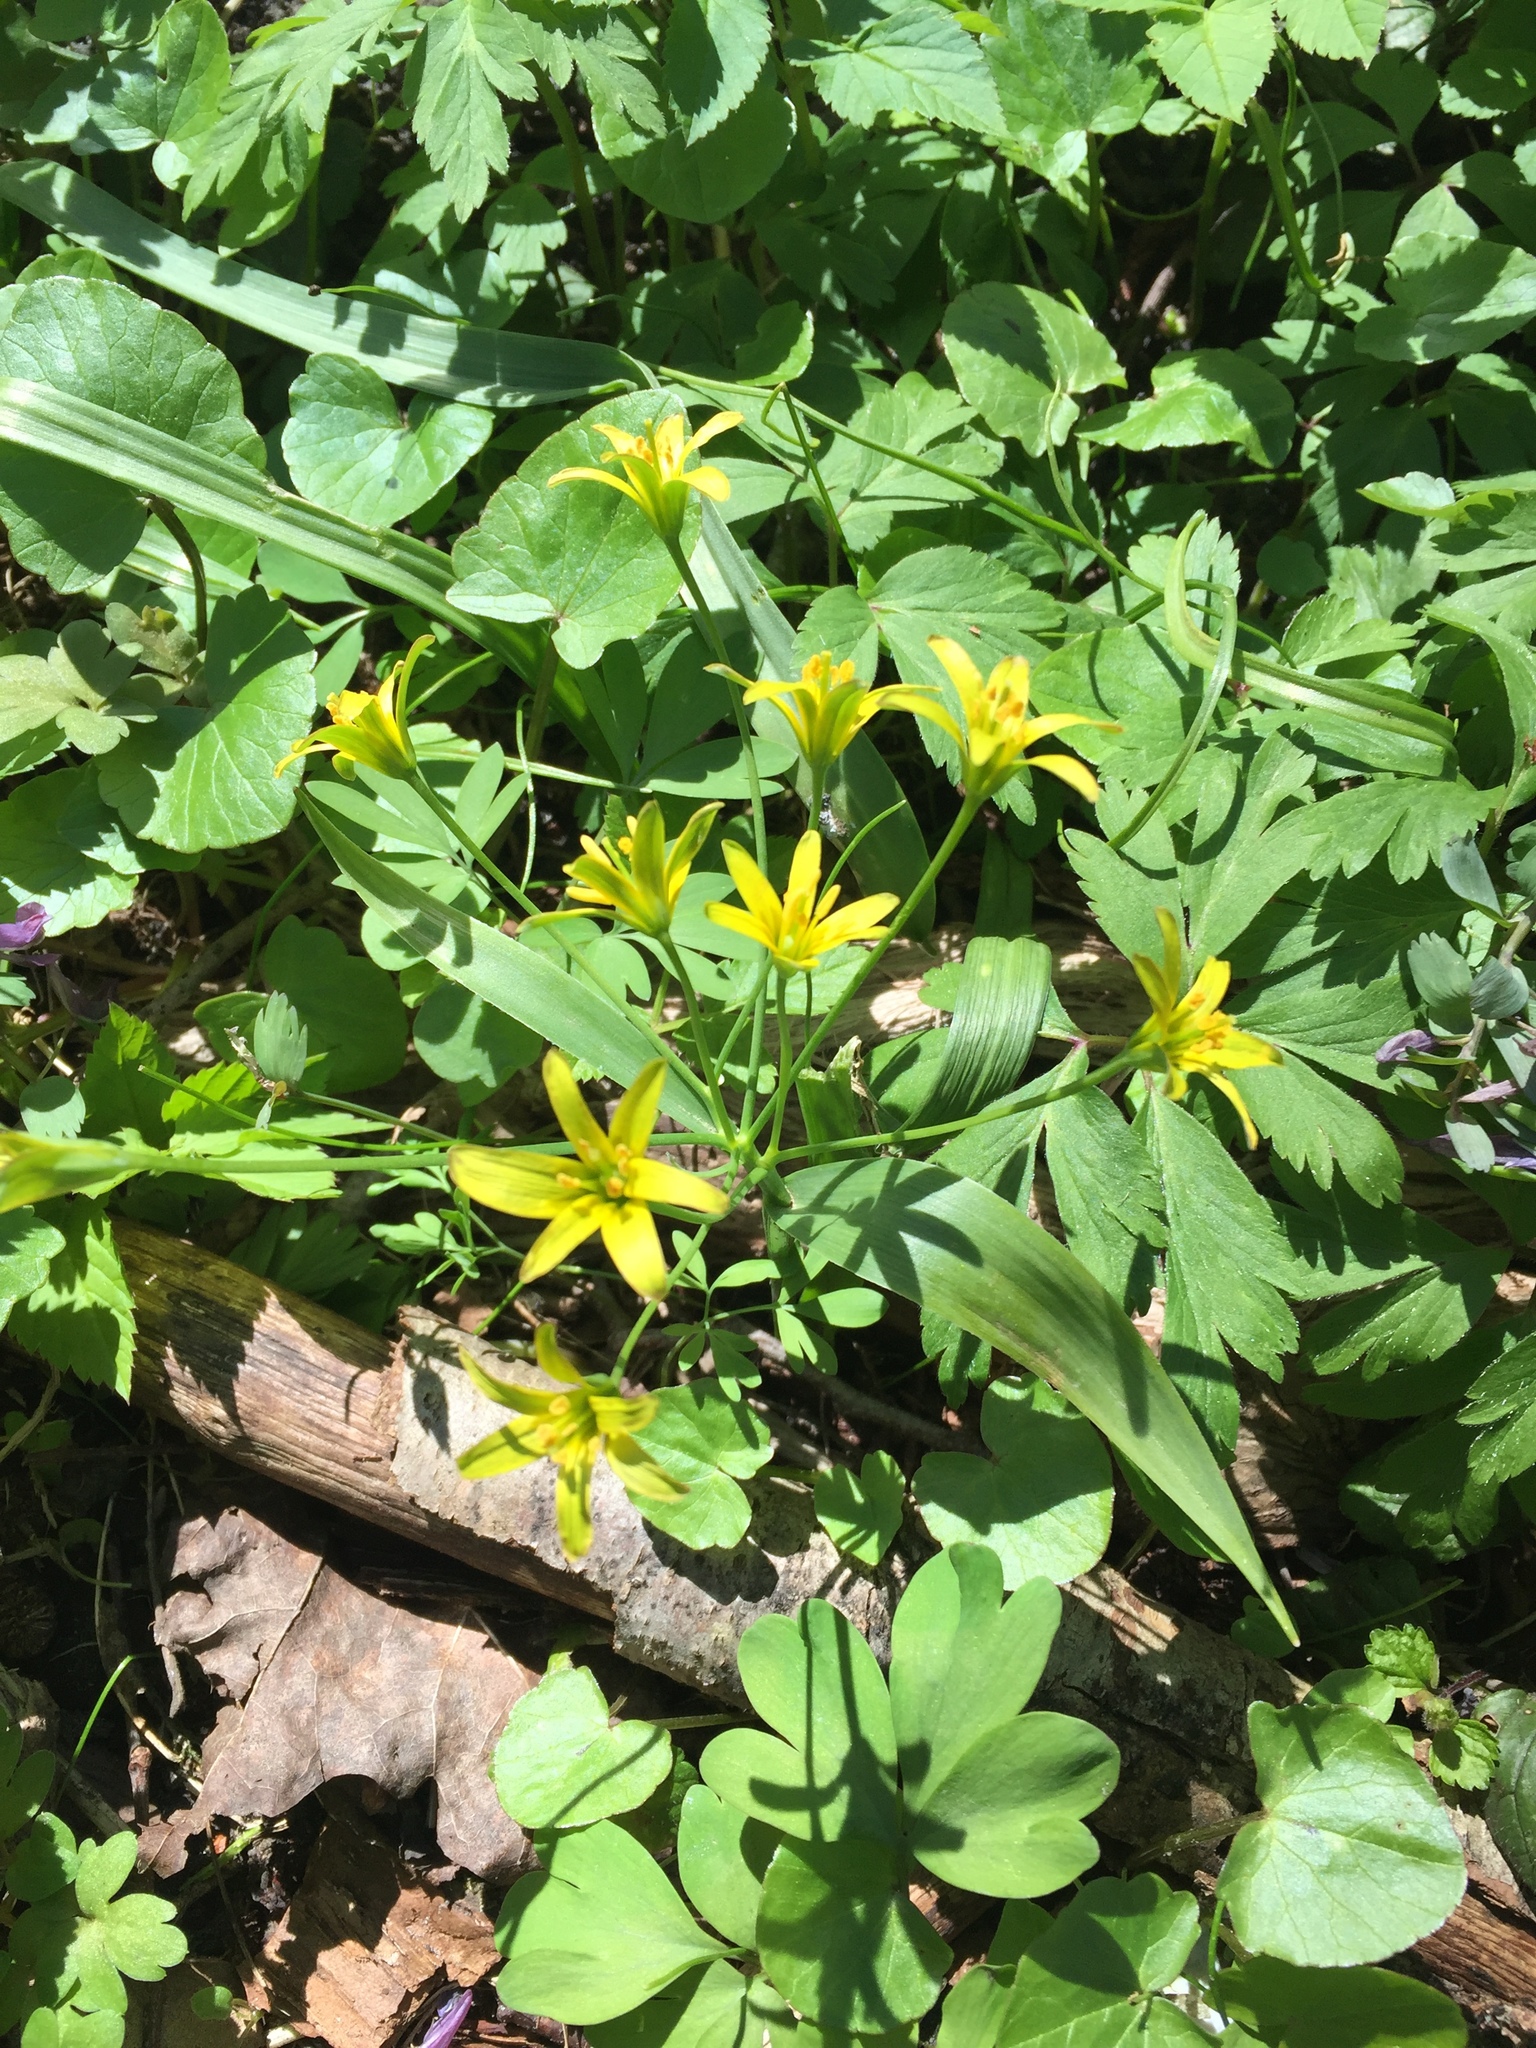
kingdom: Plantae
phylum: Tracheophyta
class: Liliopsida
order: Liliales
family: Liliaceae
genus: Gagea
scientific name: Gagea lutea
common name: Yellow star-of-bethlehem
